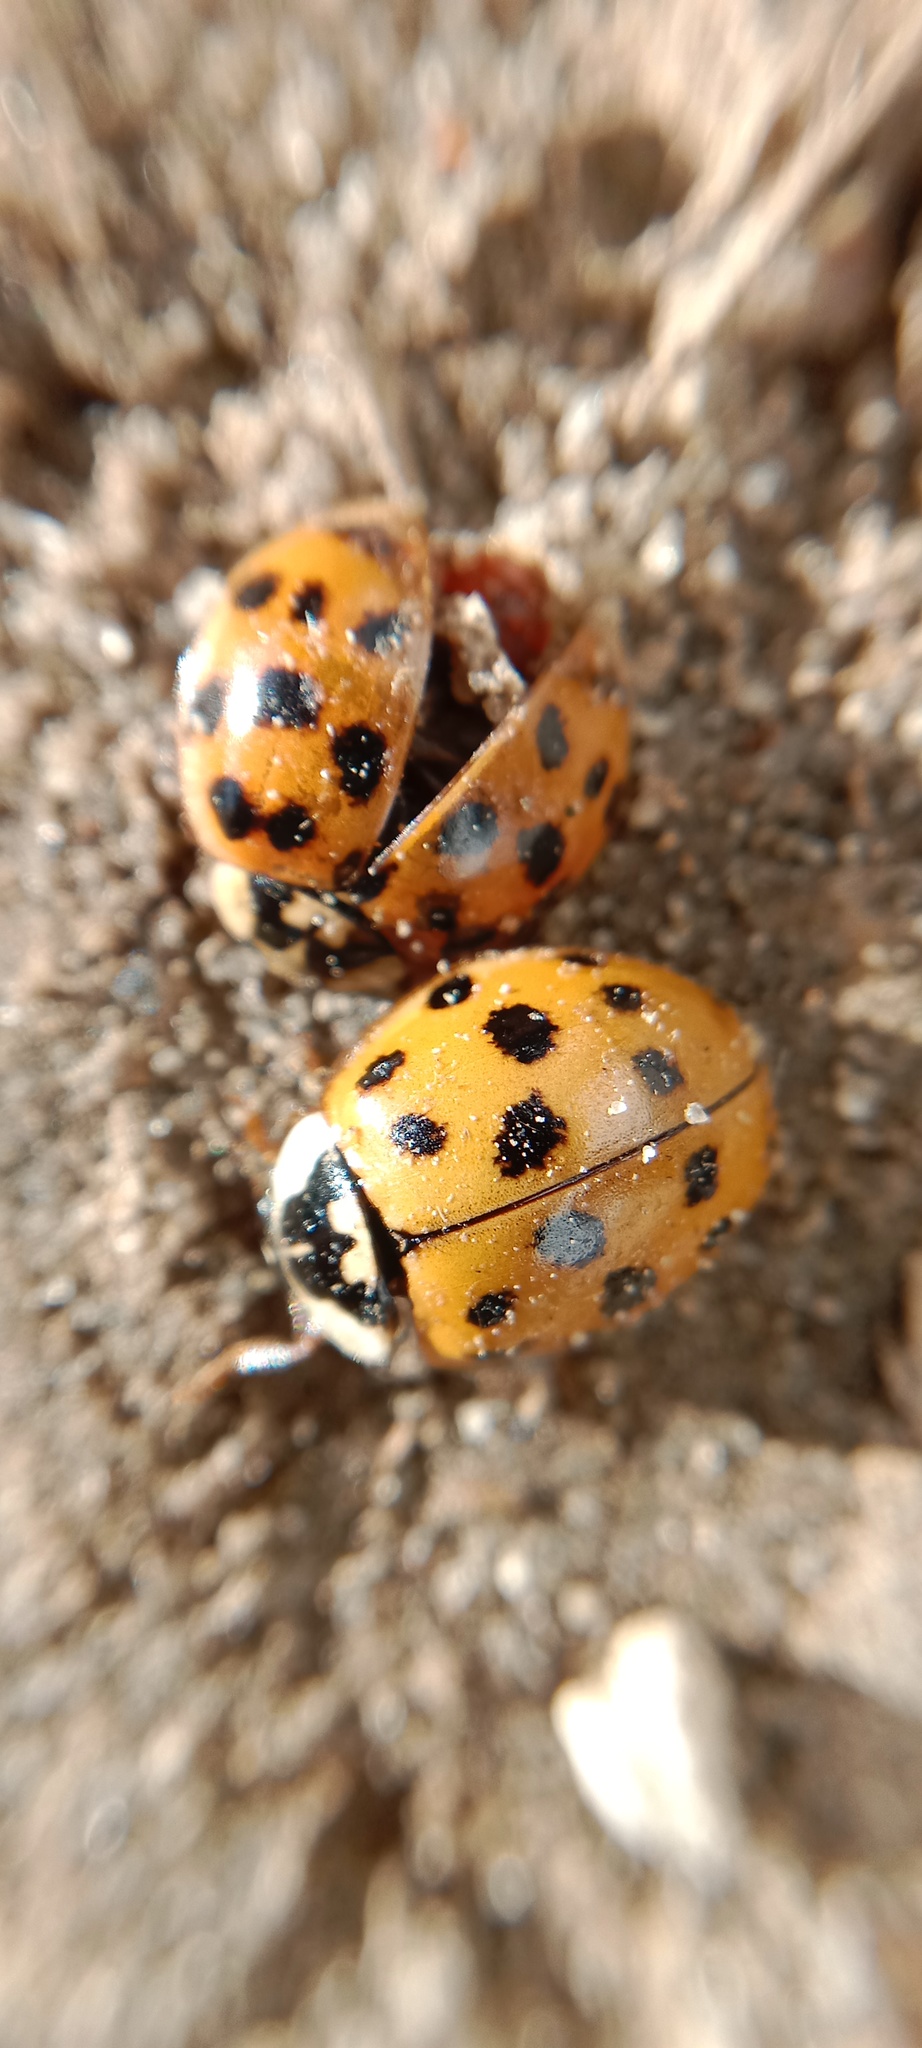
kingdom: Animalia
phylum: Arthropoda
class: Insecta
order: Coleoptera
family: Coccinellidae
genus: Harmonia
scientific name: Harmonia axyridis
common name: Harlequin ladybird
